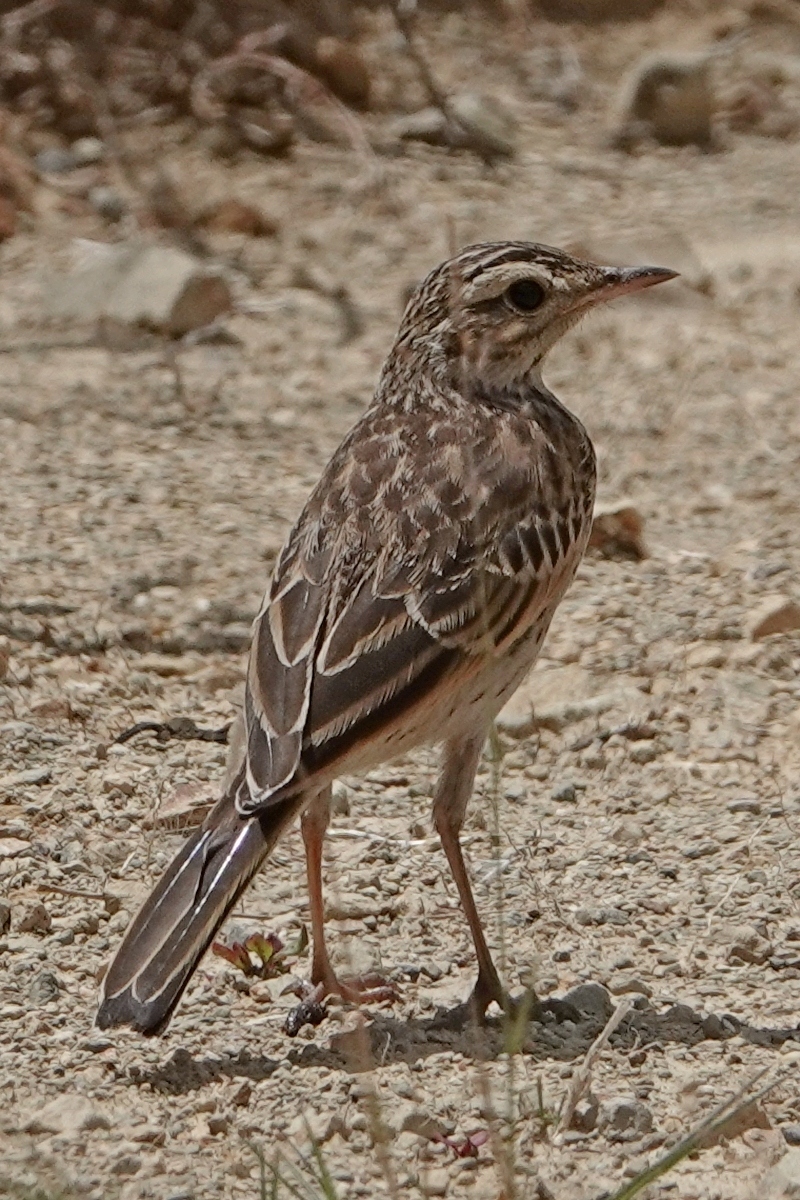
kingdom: Animalia
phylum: Chordata
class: Aves
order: Passeriformes
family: Motacillidae
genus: Anthus
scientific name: Anthus australis
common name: Australian pipit
